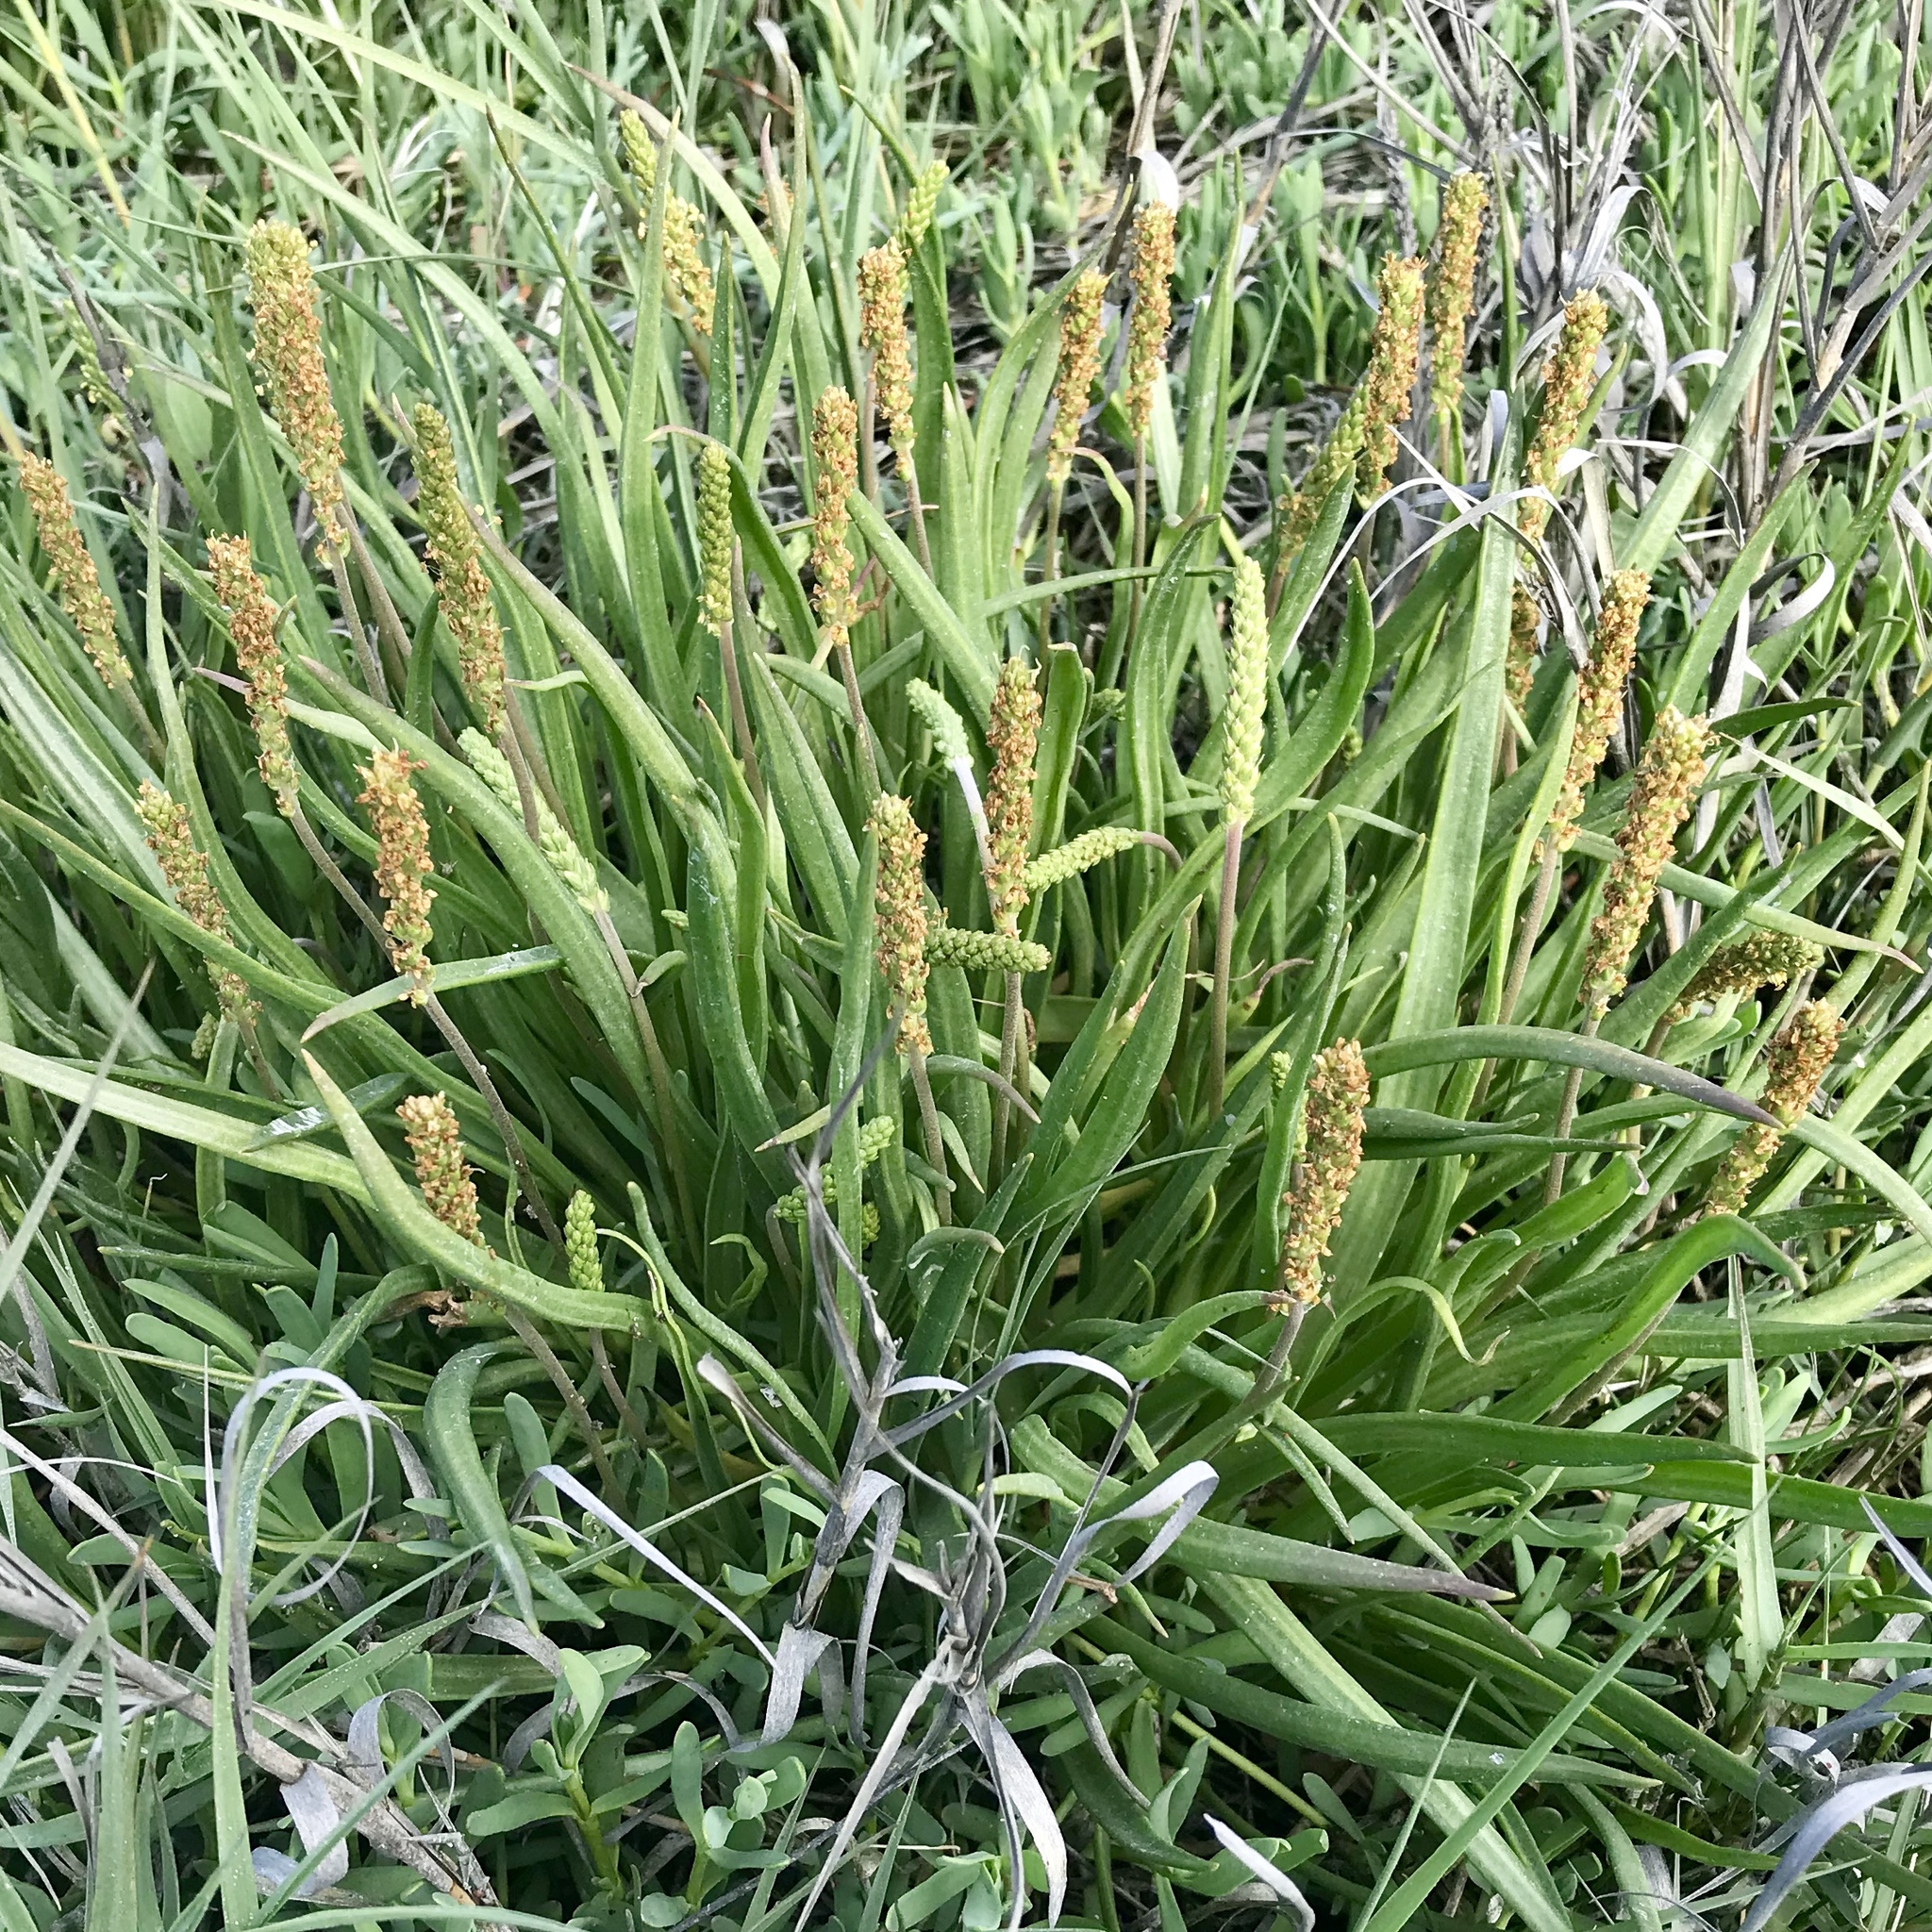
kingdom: Plantae
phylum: Tracheophyta
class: Magnoliopsida
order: Lamiales
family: Plantaginaceae
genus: Plantago
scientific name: Plantago maritima
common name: Sea plantain
